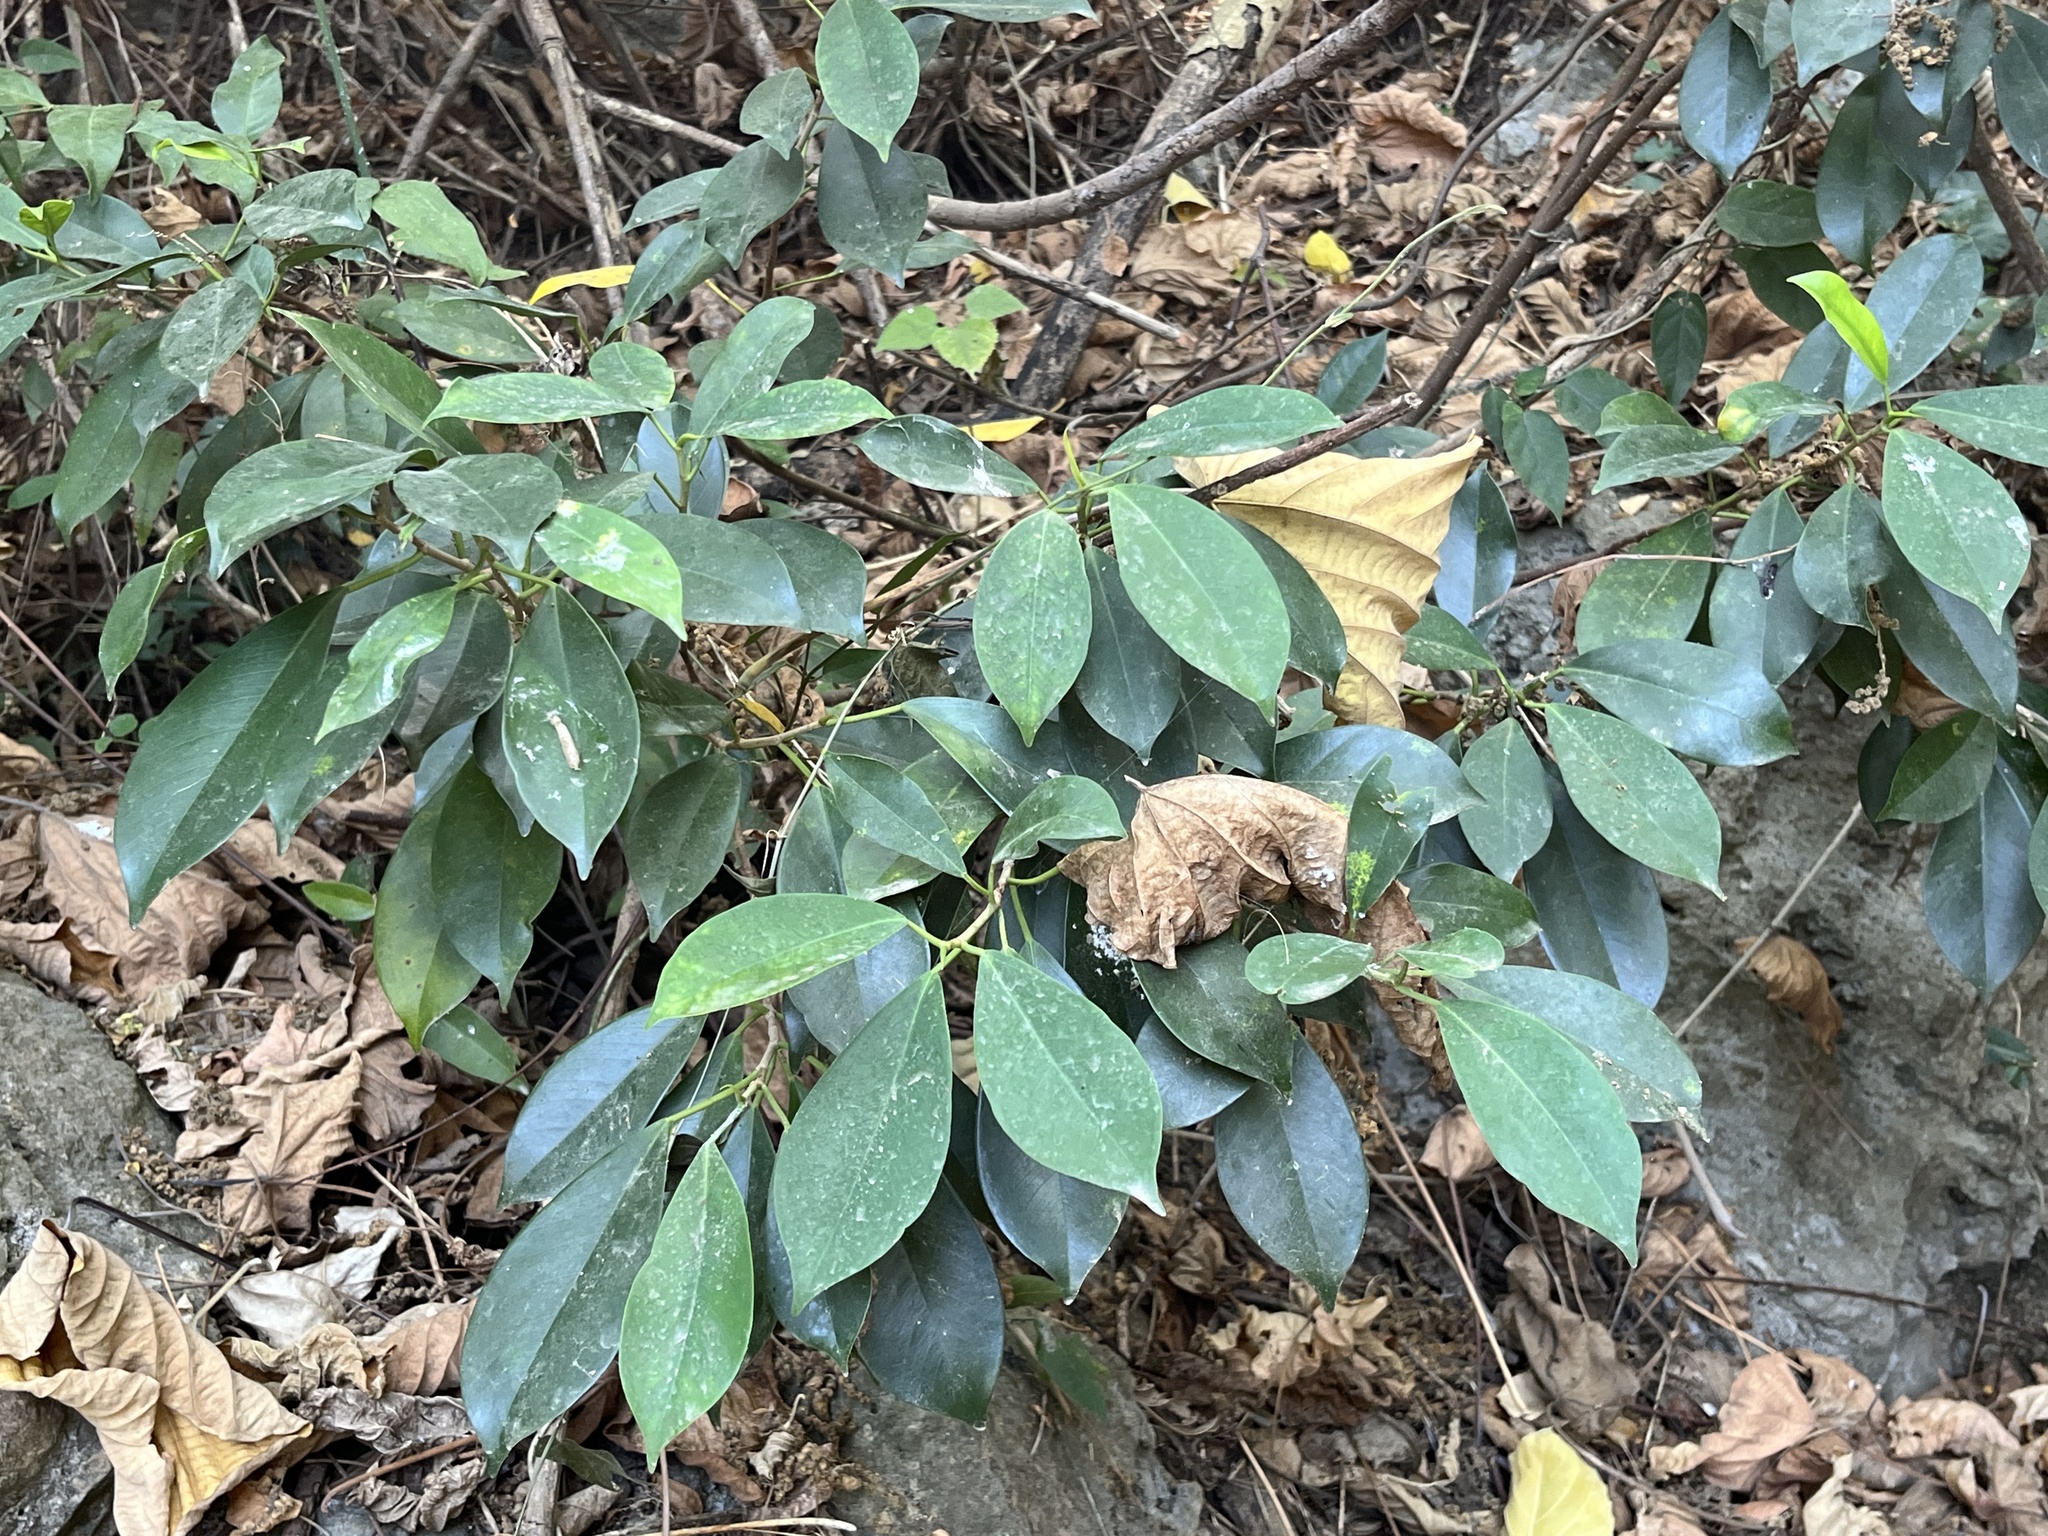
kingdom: Plantae
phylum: Tracheophyta
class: Magnoliopsida
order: Rosales
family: Moraceae
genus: Ficus
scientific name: Ficus microcarpa
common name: Chinese banyan
